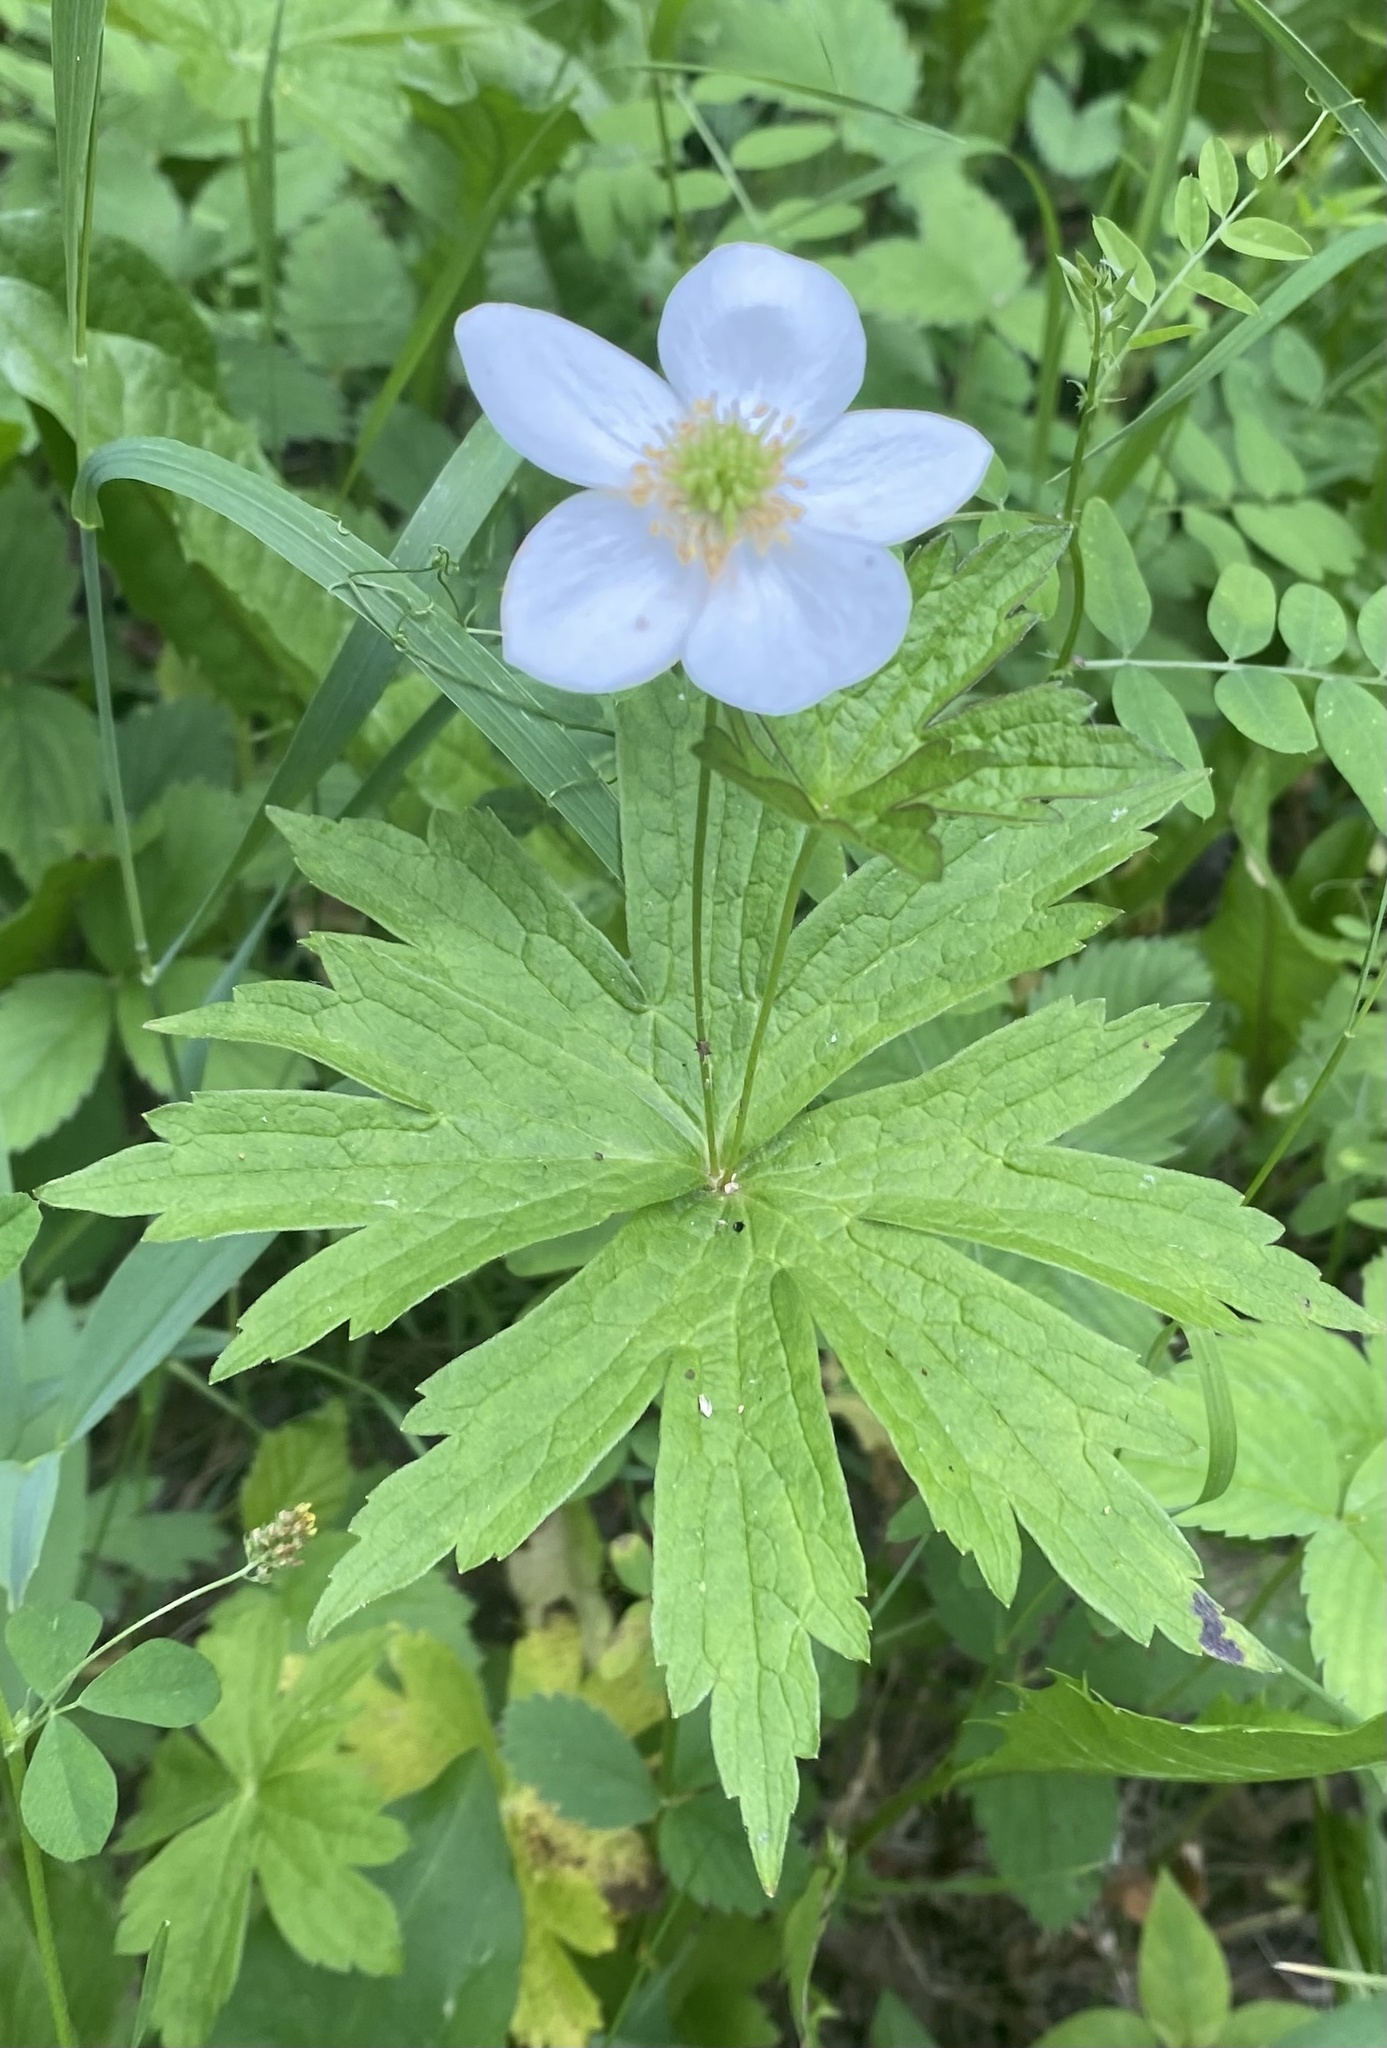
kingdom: Plantae
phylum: Tracheophyta
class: Magnoliopsida
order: Ranunculales
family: Ranunculaceae
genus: Anemonastrum
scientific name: Anemonastrum canadense
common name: Canada anemone
